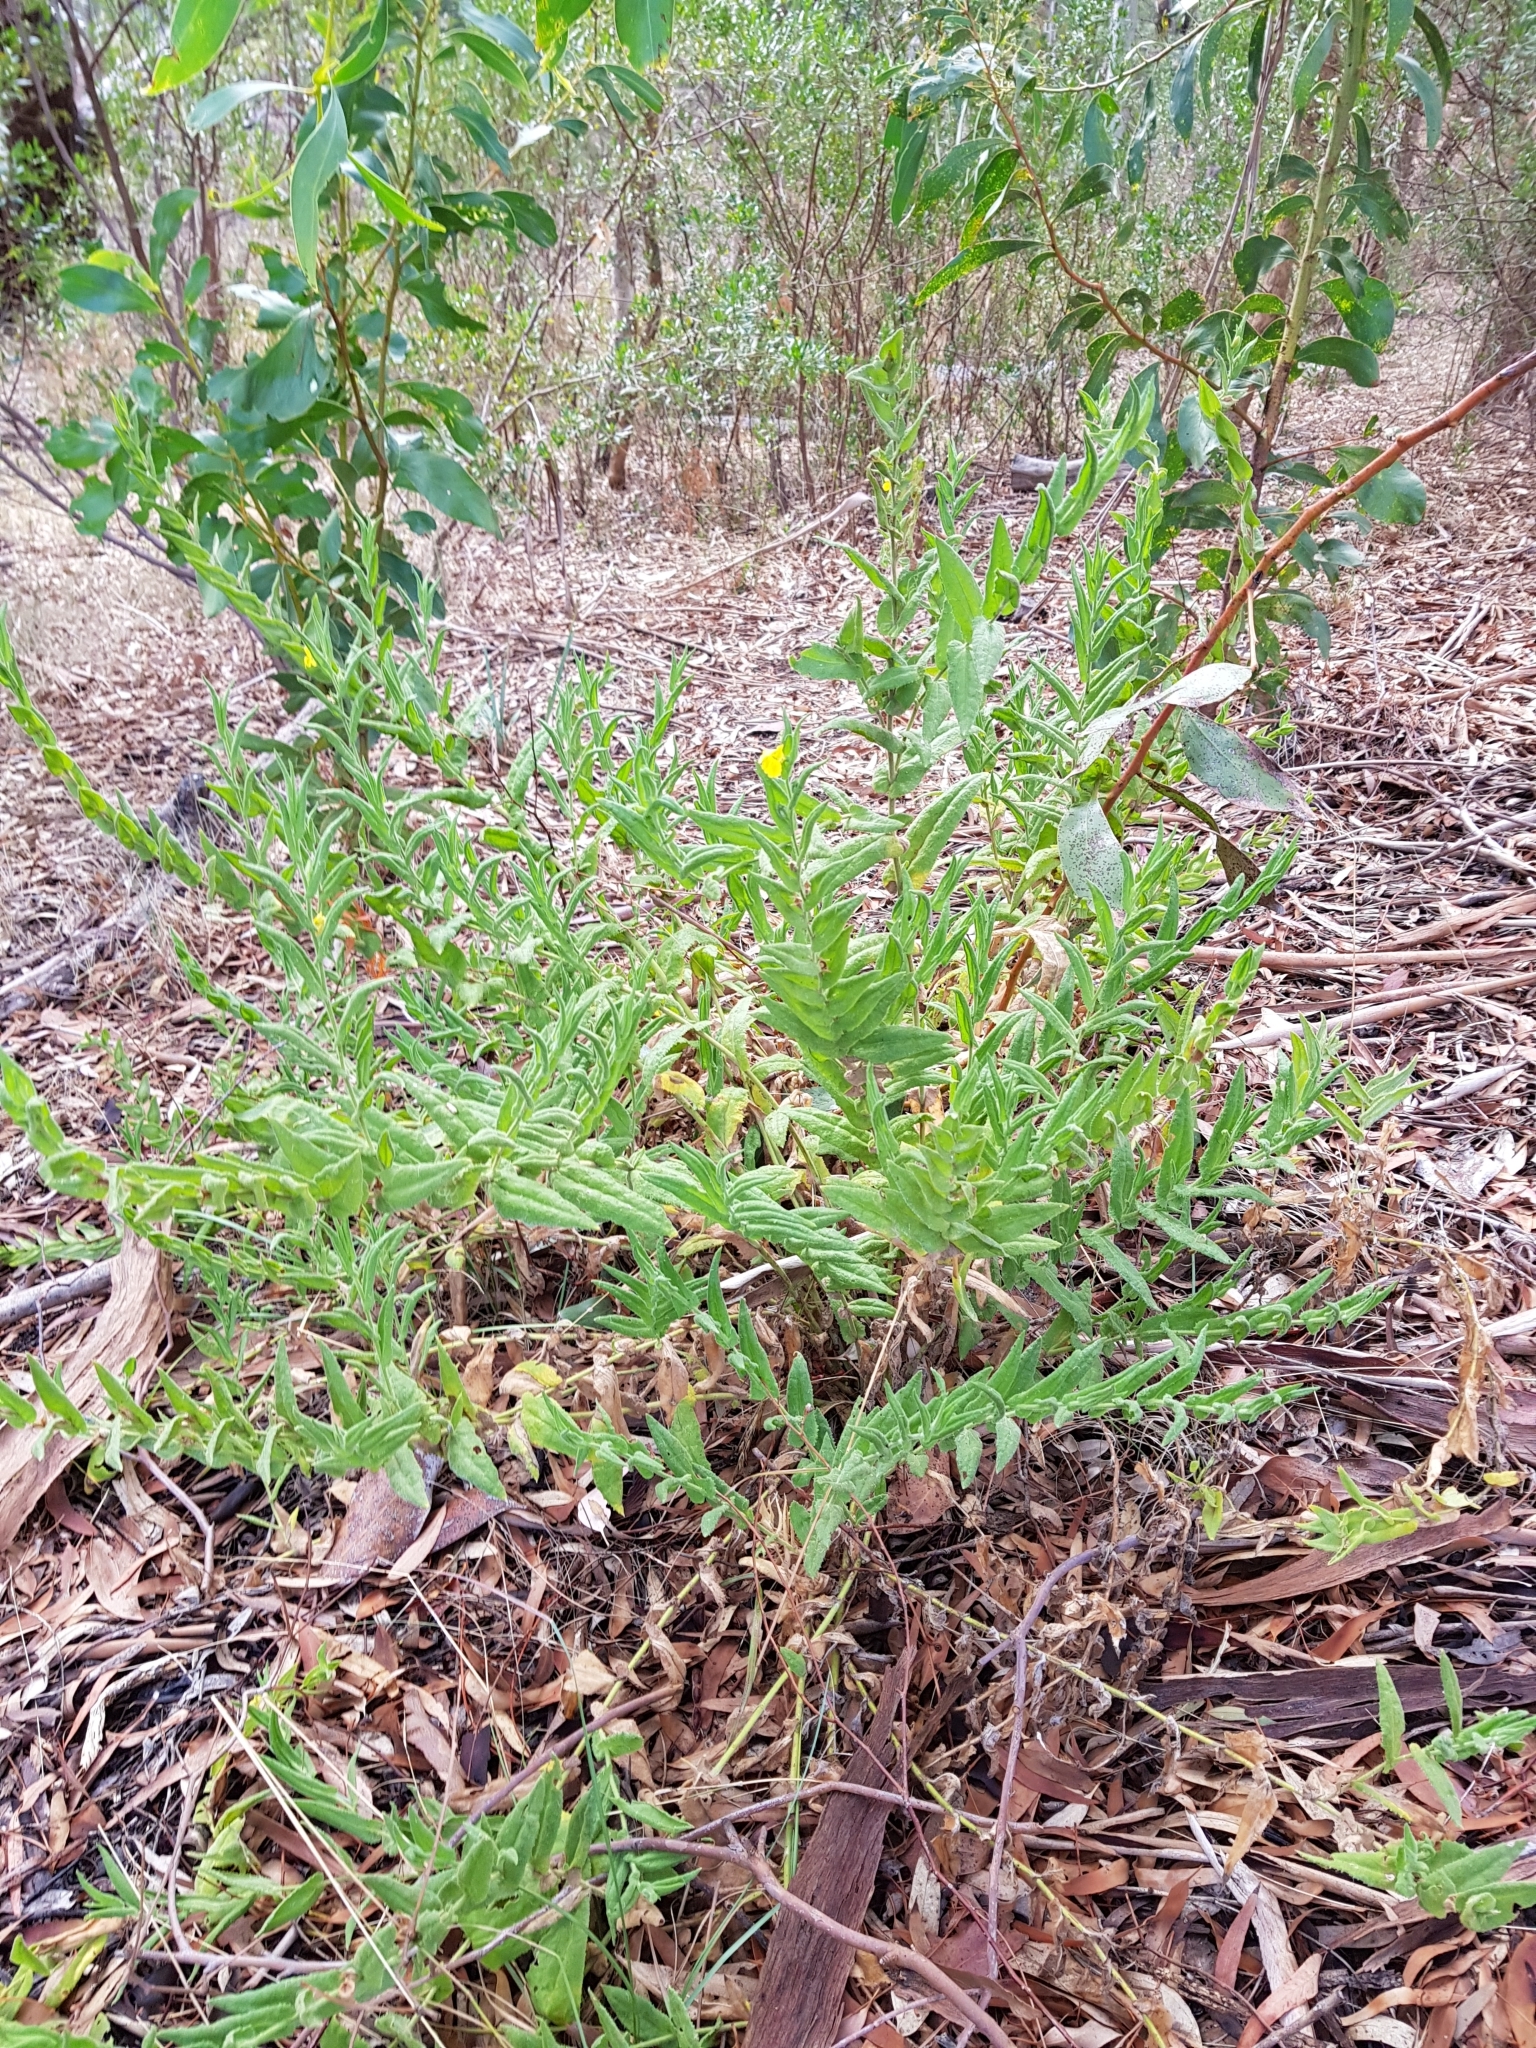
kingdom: Plantae
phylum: Tracheophyta
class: Magnoliopsida
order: Asterales
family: Goodeniaceae
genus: Goodenia
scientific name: Goodenia amplexans
